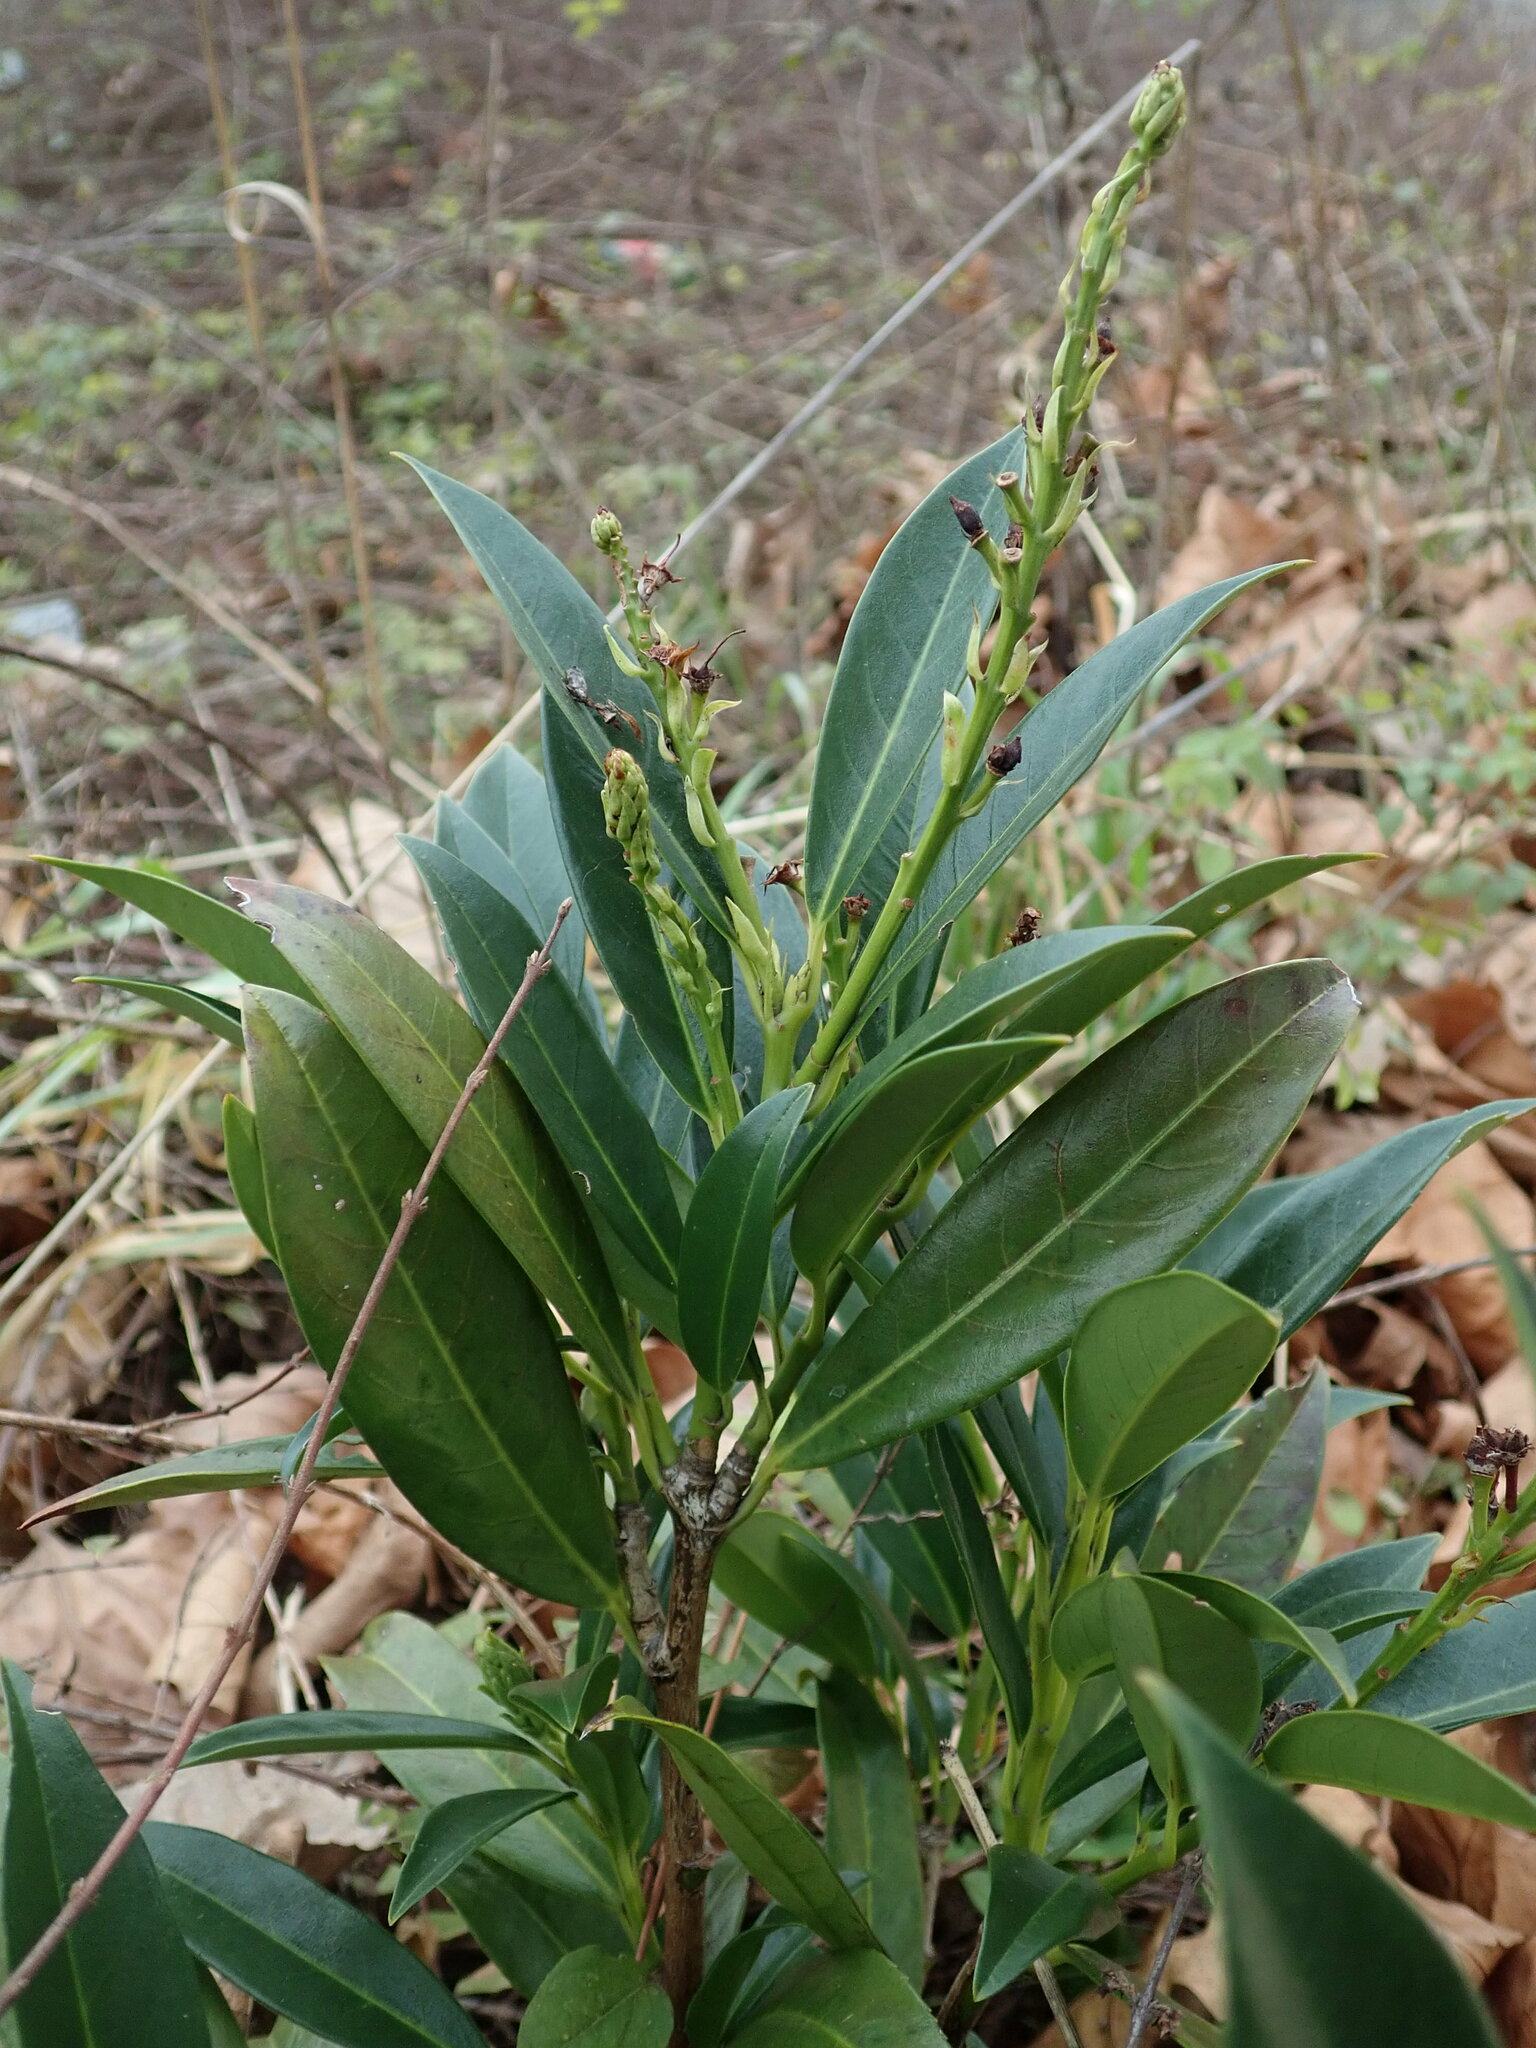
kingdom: Plantae
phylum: Tracheophyta
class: Magnoliopsida
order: Rosales
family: Rosaceae
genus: Prunus
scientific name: Prunus laurocerasus
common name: Cherry laurel
